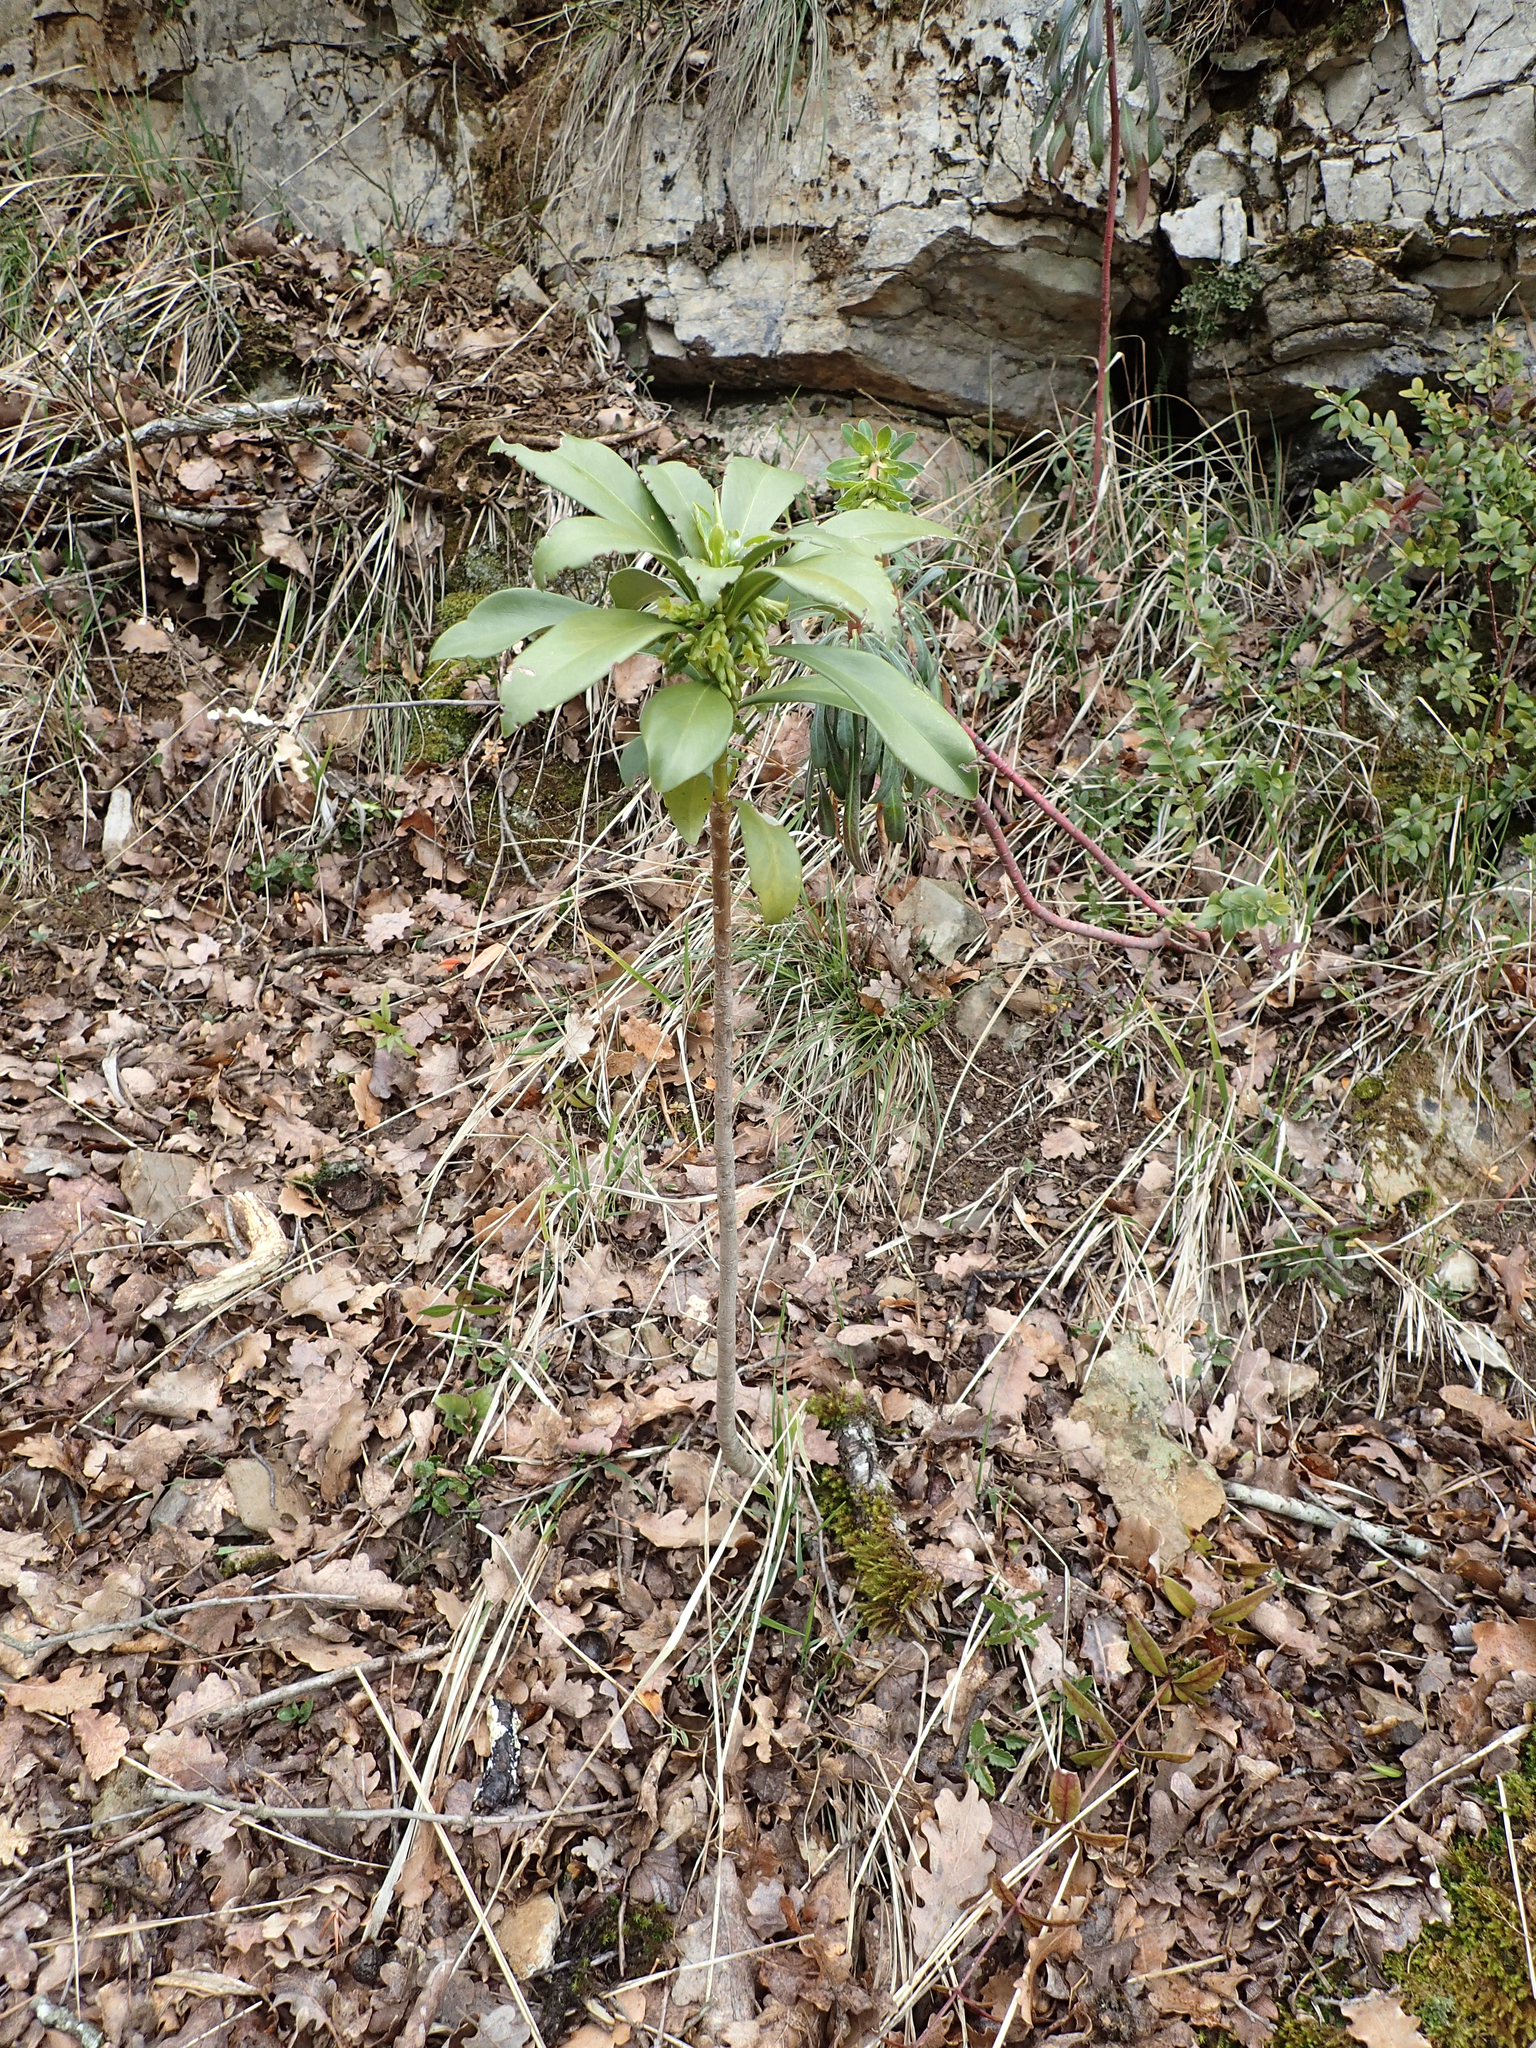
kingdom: Plantae
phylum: Tracheophyta
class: Magnoliopsida
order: Malvales
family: Thymelaeaceae
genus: Daphne
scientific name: Daphne laureola
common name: Spurge-laurel
